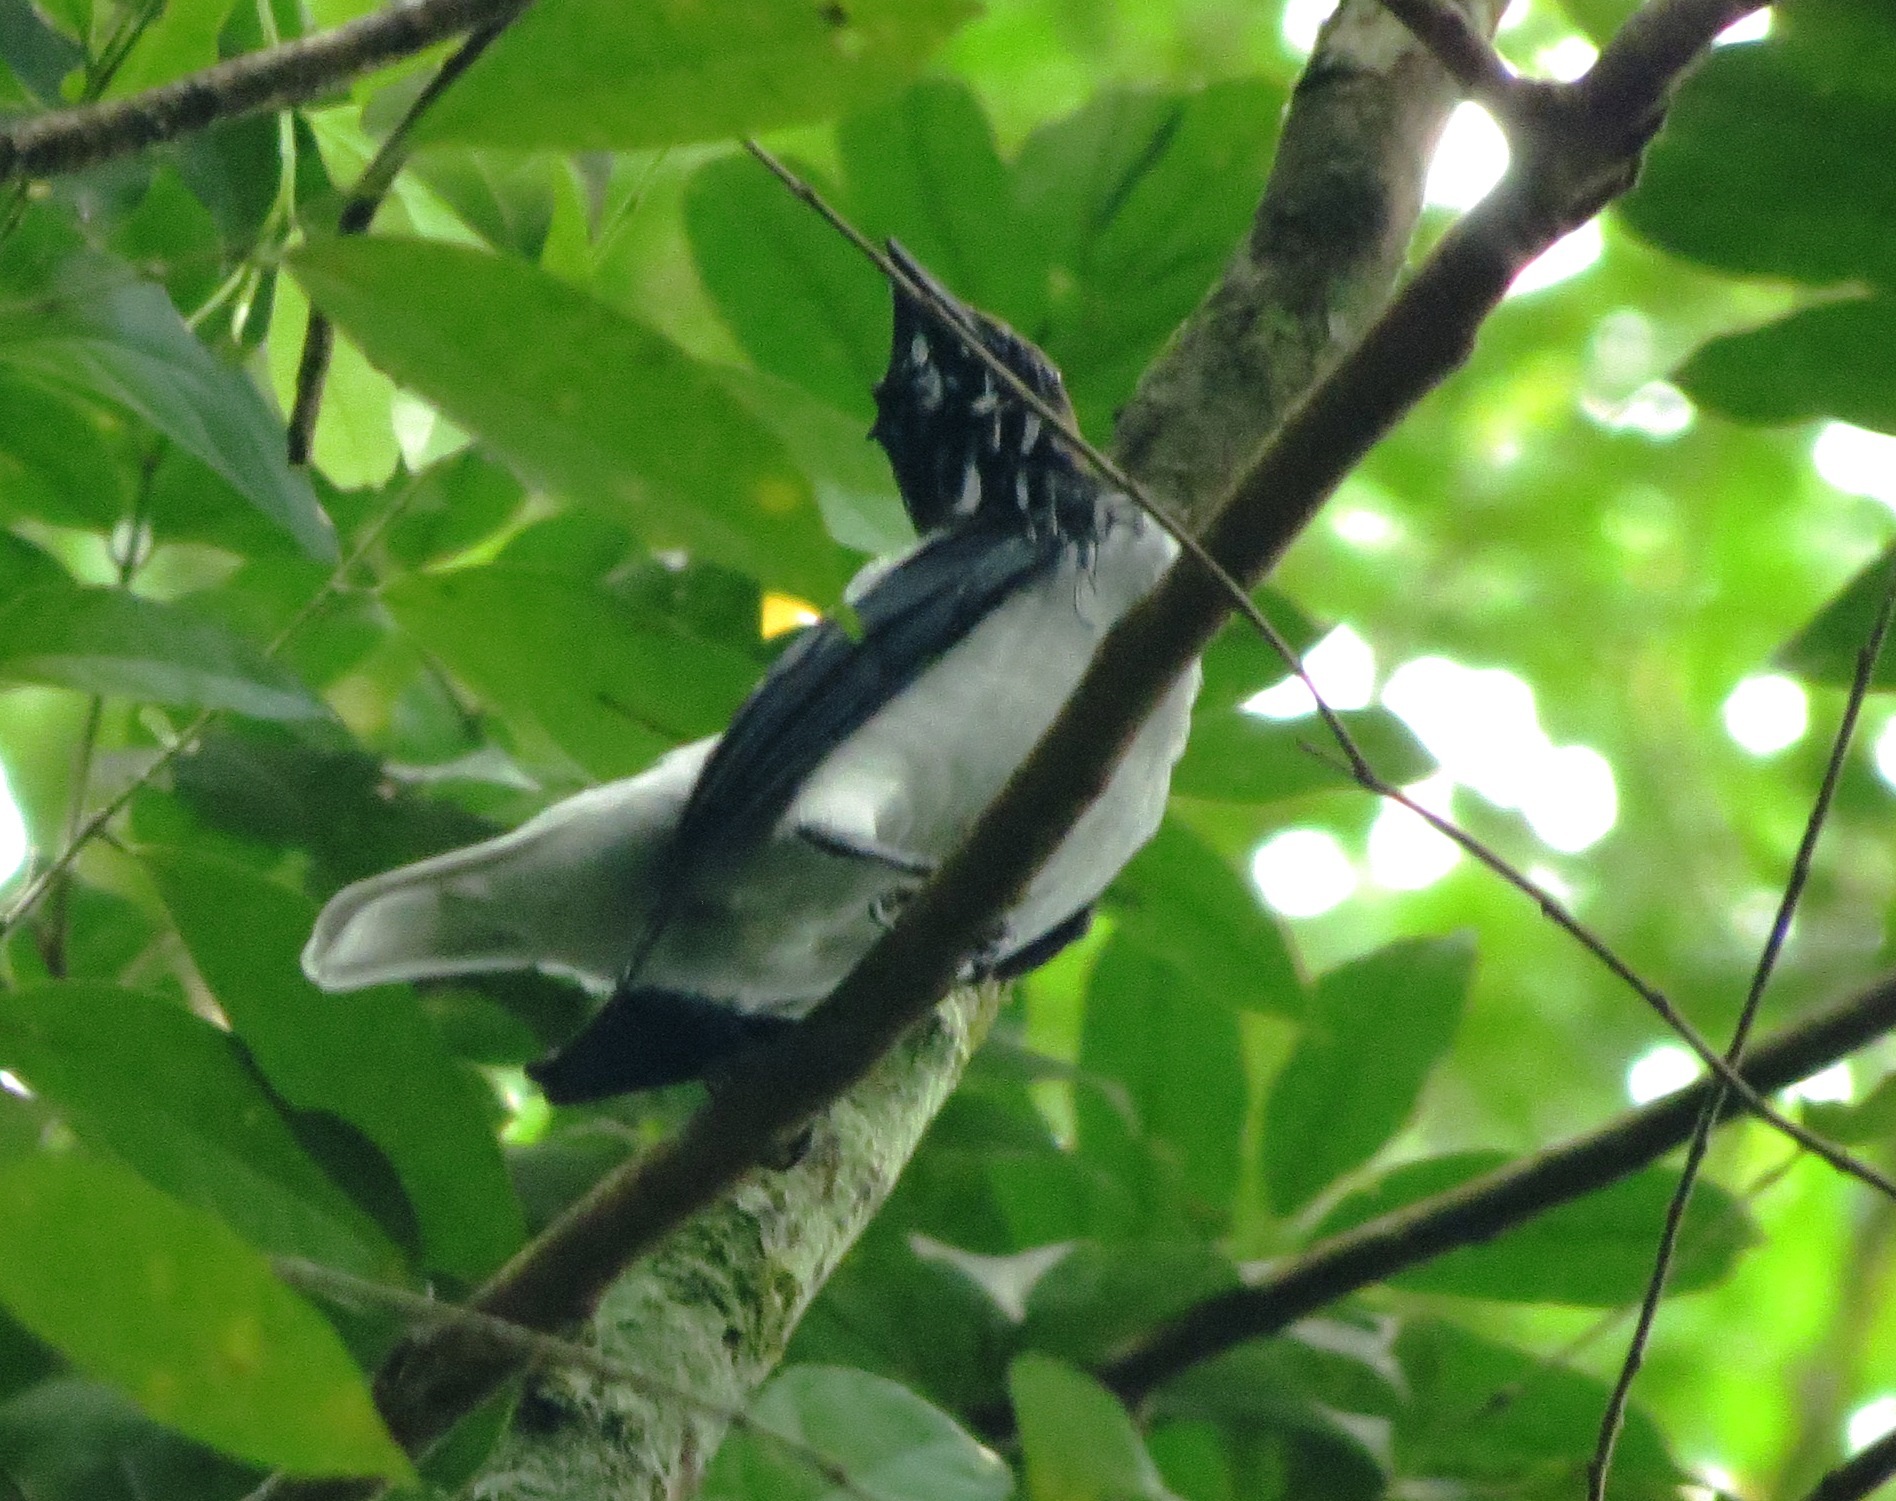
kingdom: Animalia
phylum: Chordata
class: Aves
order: Passeriformes
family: Cotingidae
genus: Procnias
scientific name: Procnias averano
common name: Bearded bellbird
